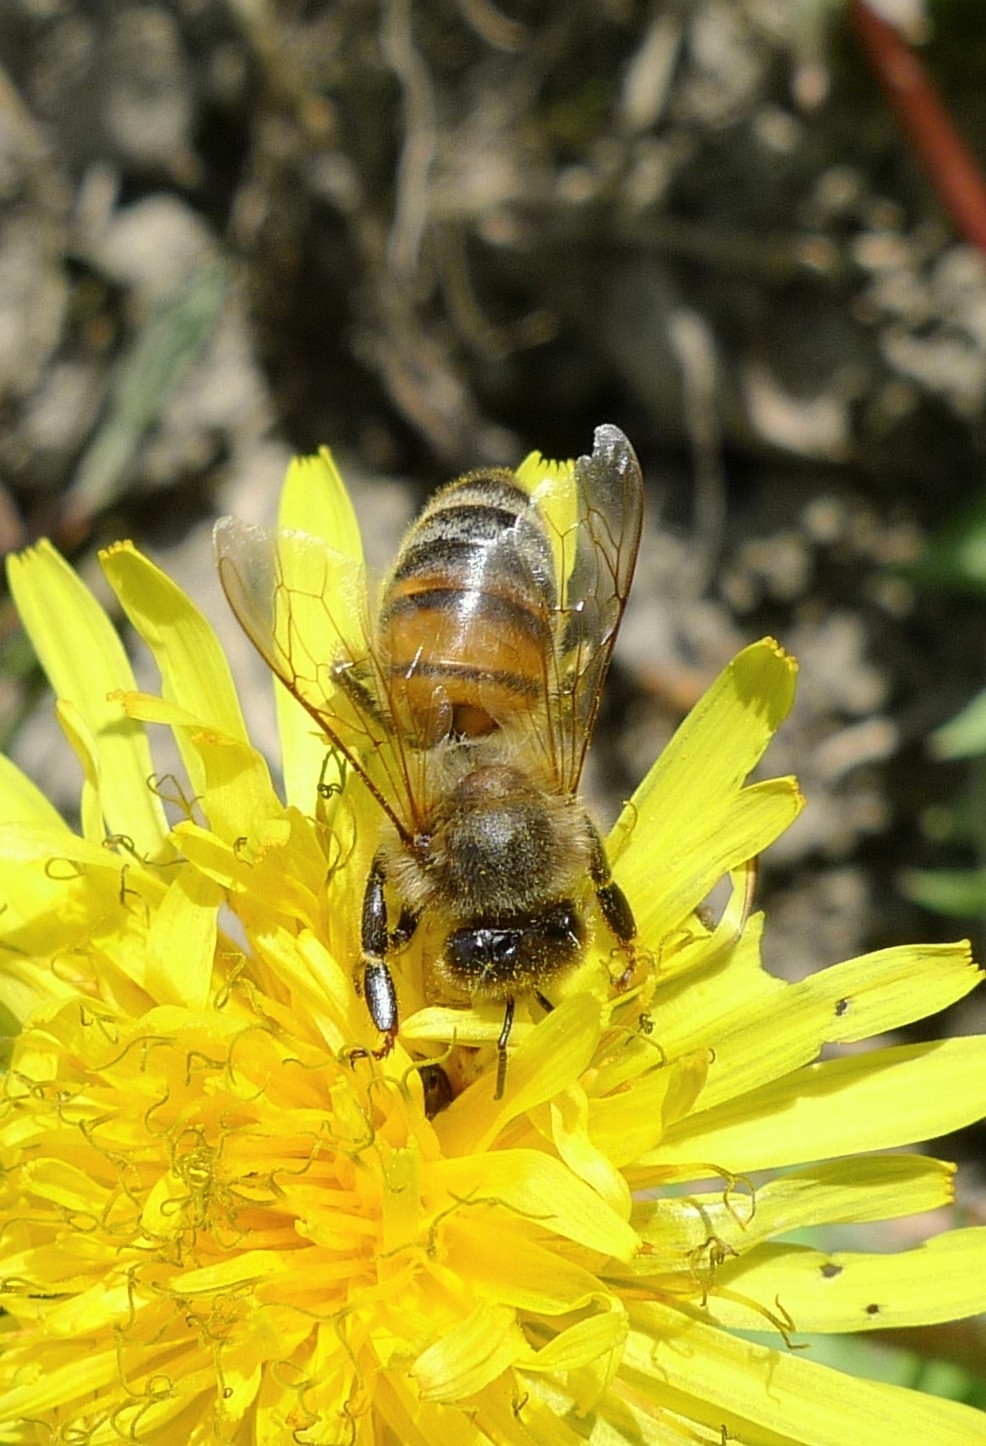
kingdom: Animalia
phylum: Arthropoda
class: Insecta
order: Hymenoptera
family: Apidae
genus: Apis
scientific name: Apis mellifera
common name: Honey bee
